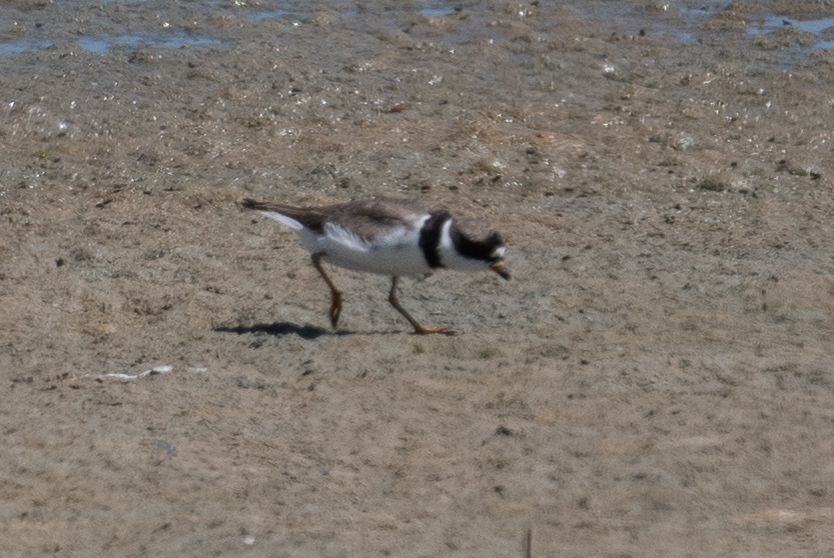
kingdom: Animalia
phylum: Chordata
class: Aves
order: Charadriiformes
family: Charadriidae
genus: Charadrius
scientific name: Charadrius semipalmatus
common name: Semipalmated plover
